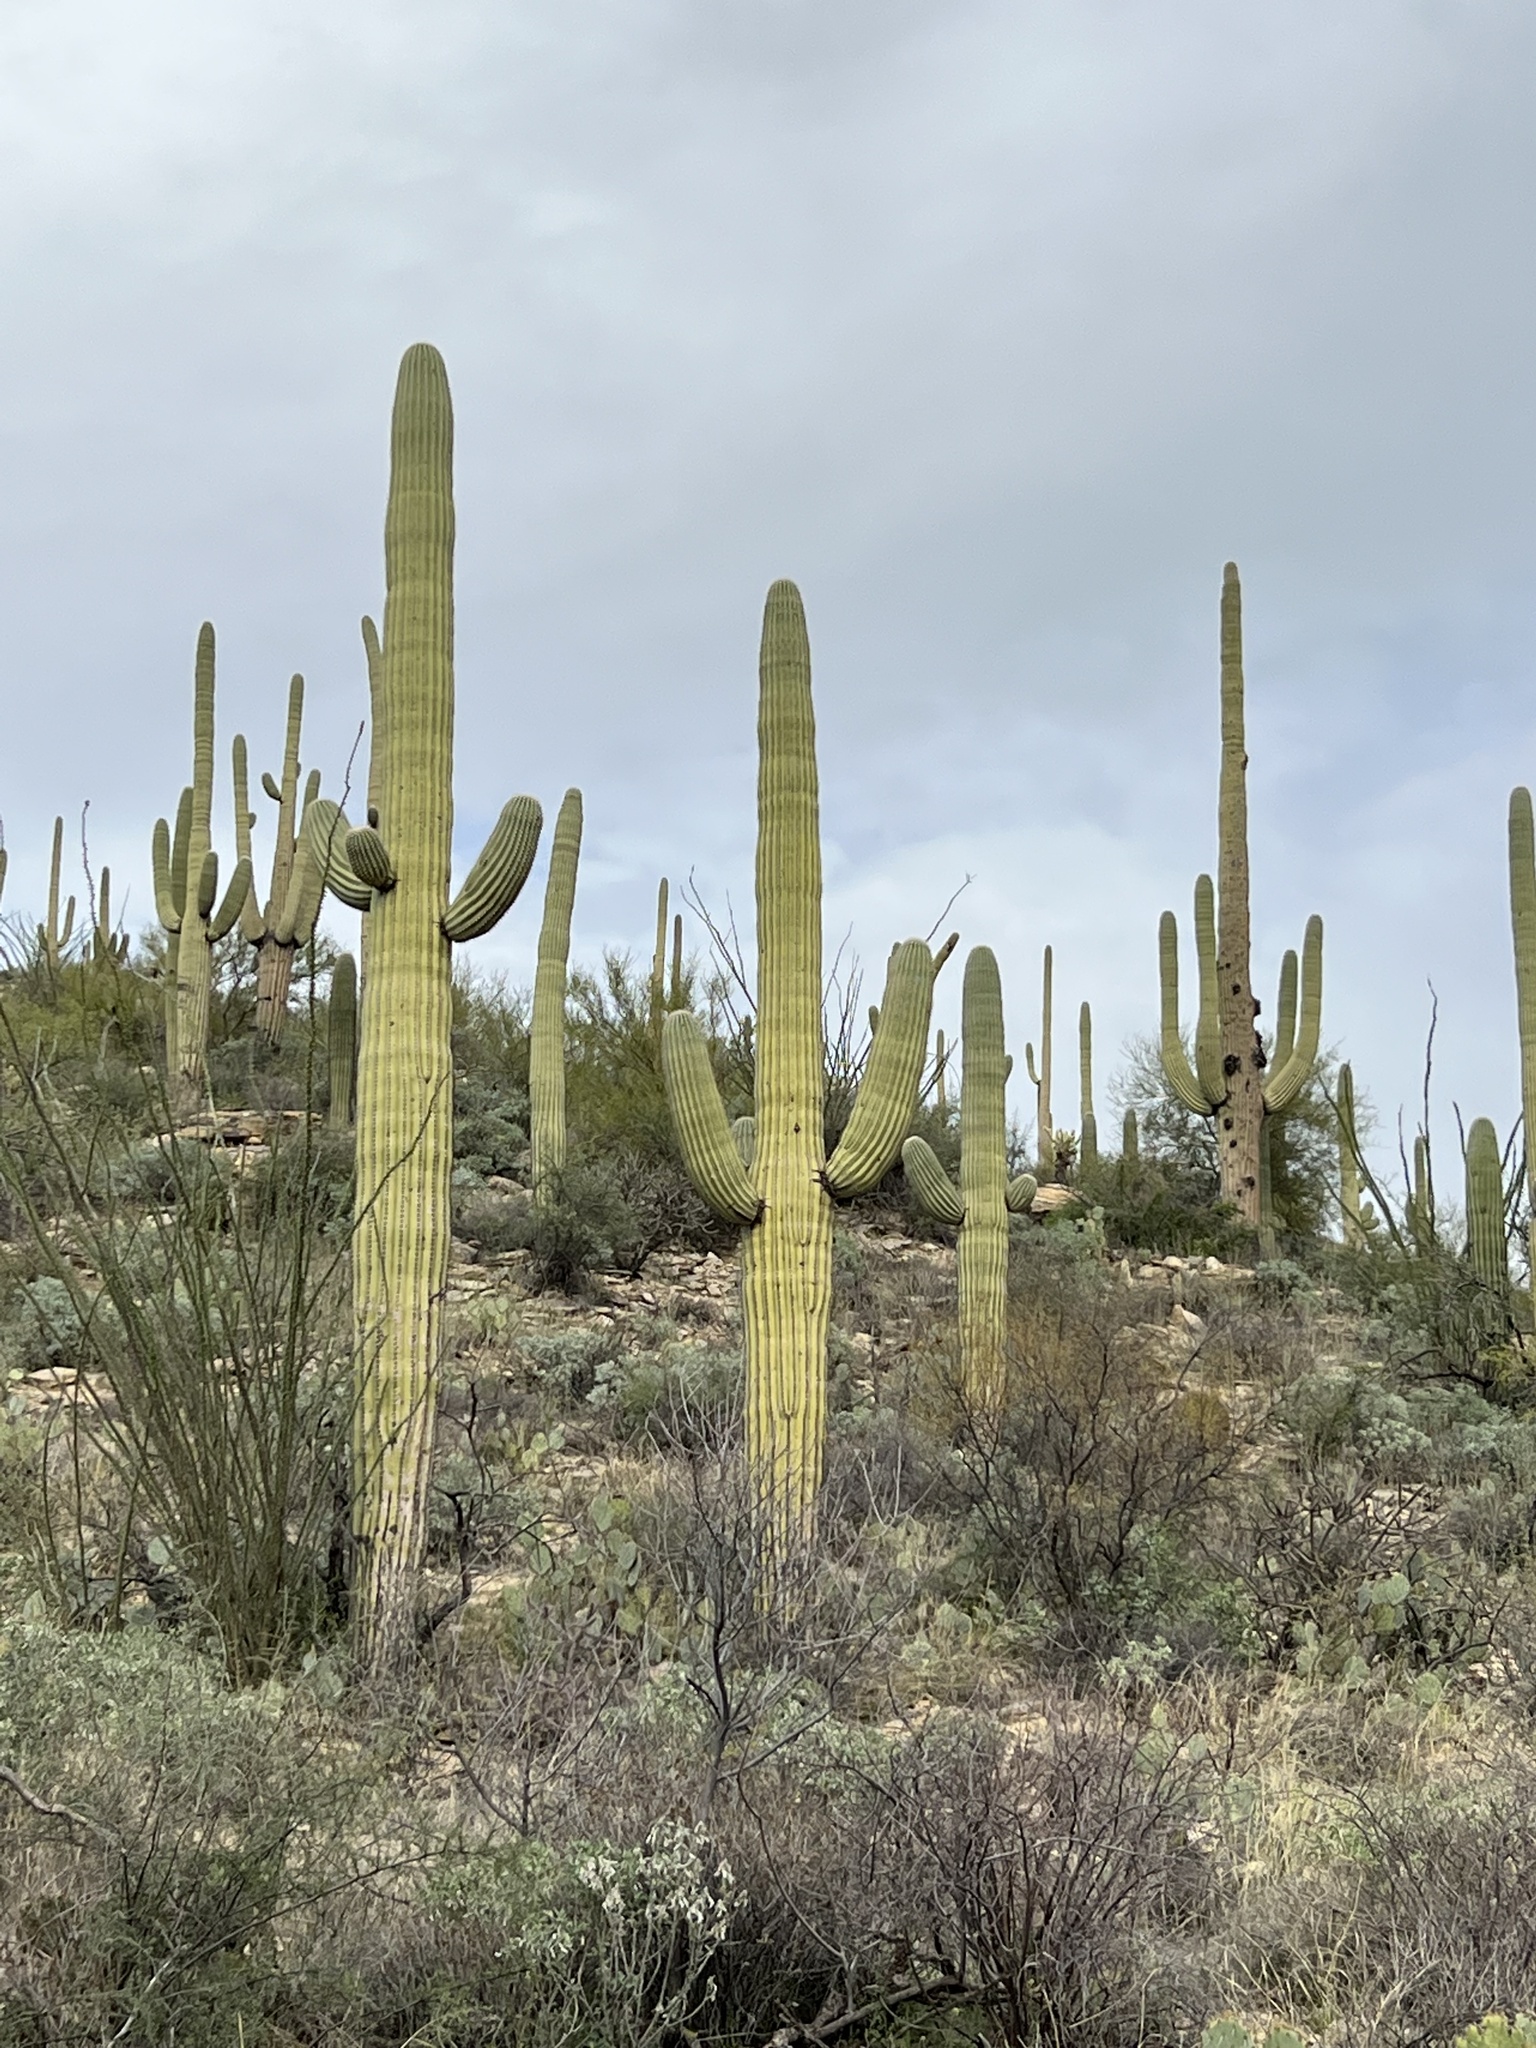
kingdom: Plantae
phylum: Tracheophyta
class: Magnoliopsida
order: Caryophyllales
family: Cactaceae
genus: Carnegiea
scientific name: Carnegiea gigantea
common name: Saguaro
